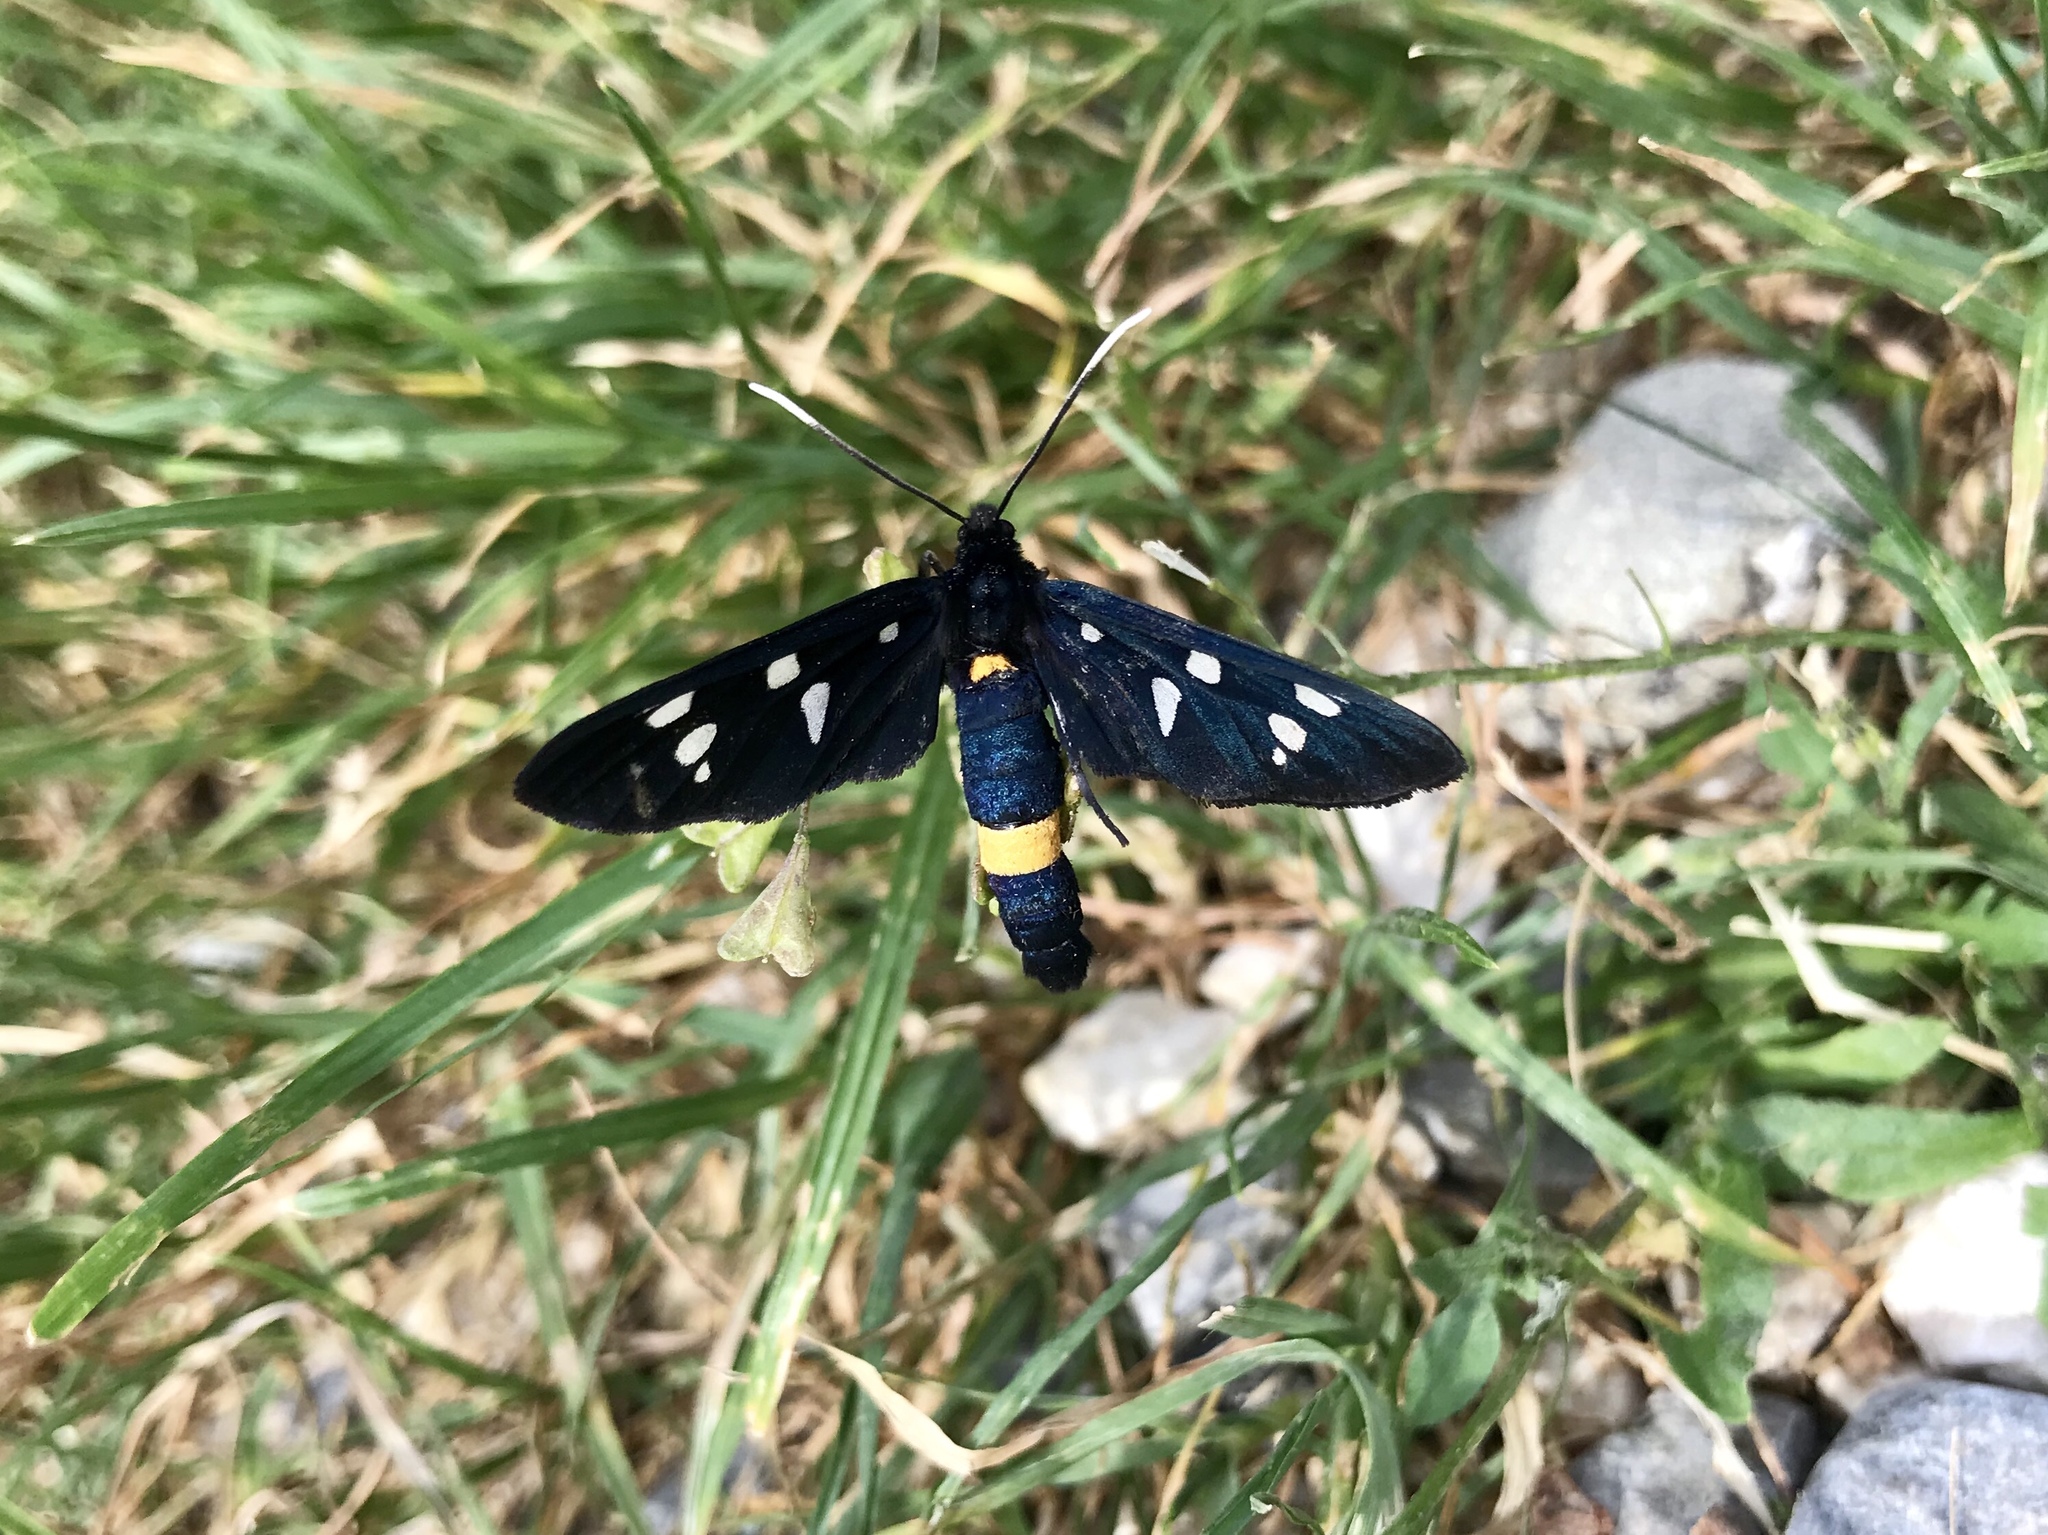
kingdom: Animalia
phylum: Arthropoda
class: Insecta
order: Lepidoptera
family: Erebidae
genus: Amata
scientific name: Amata phegea
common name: Nine-spotted
